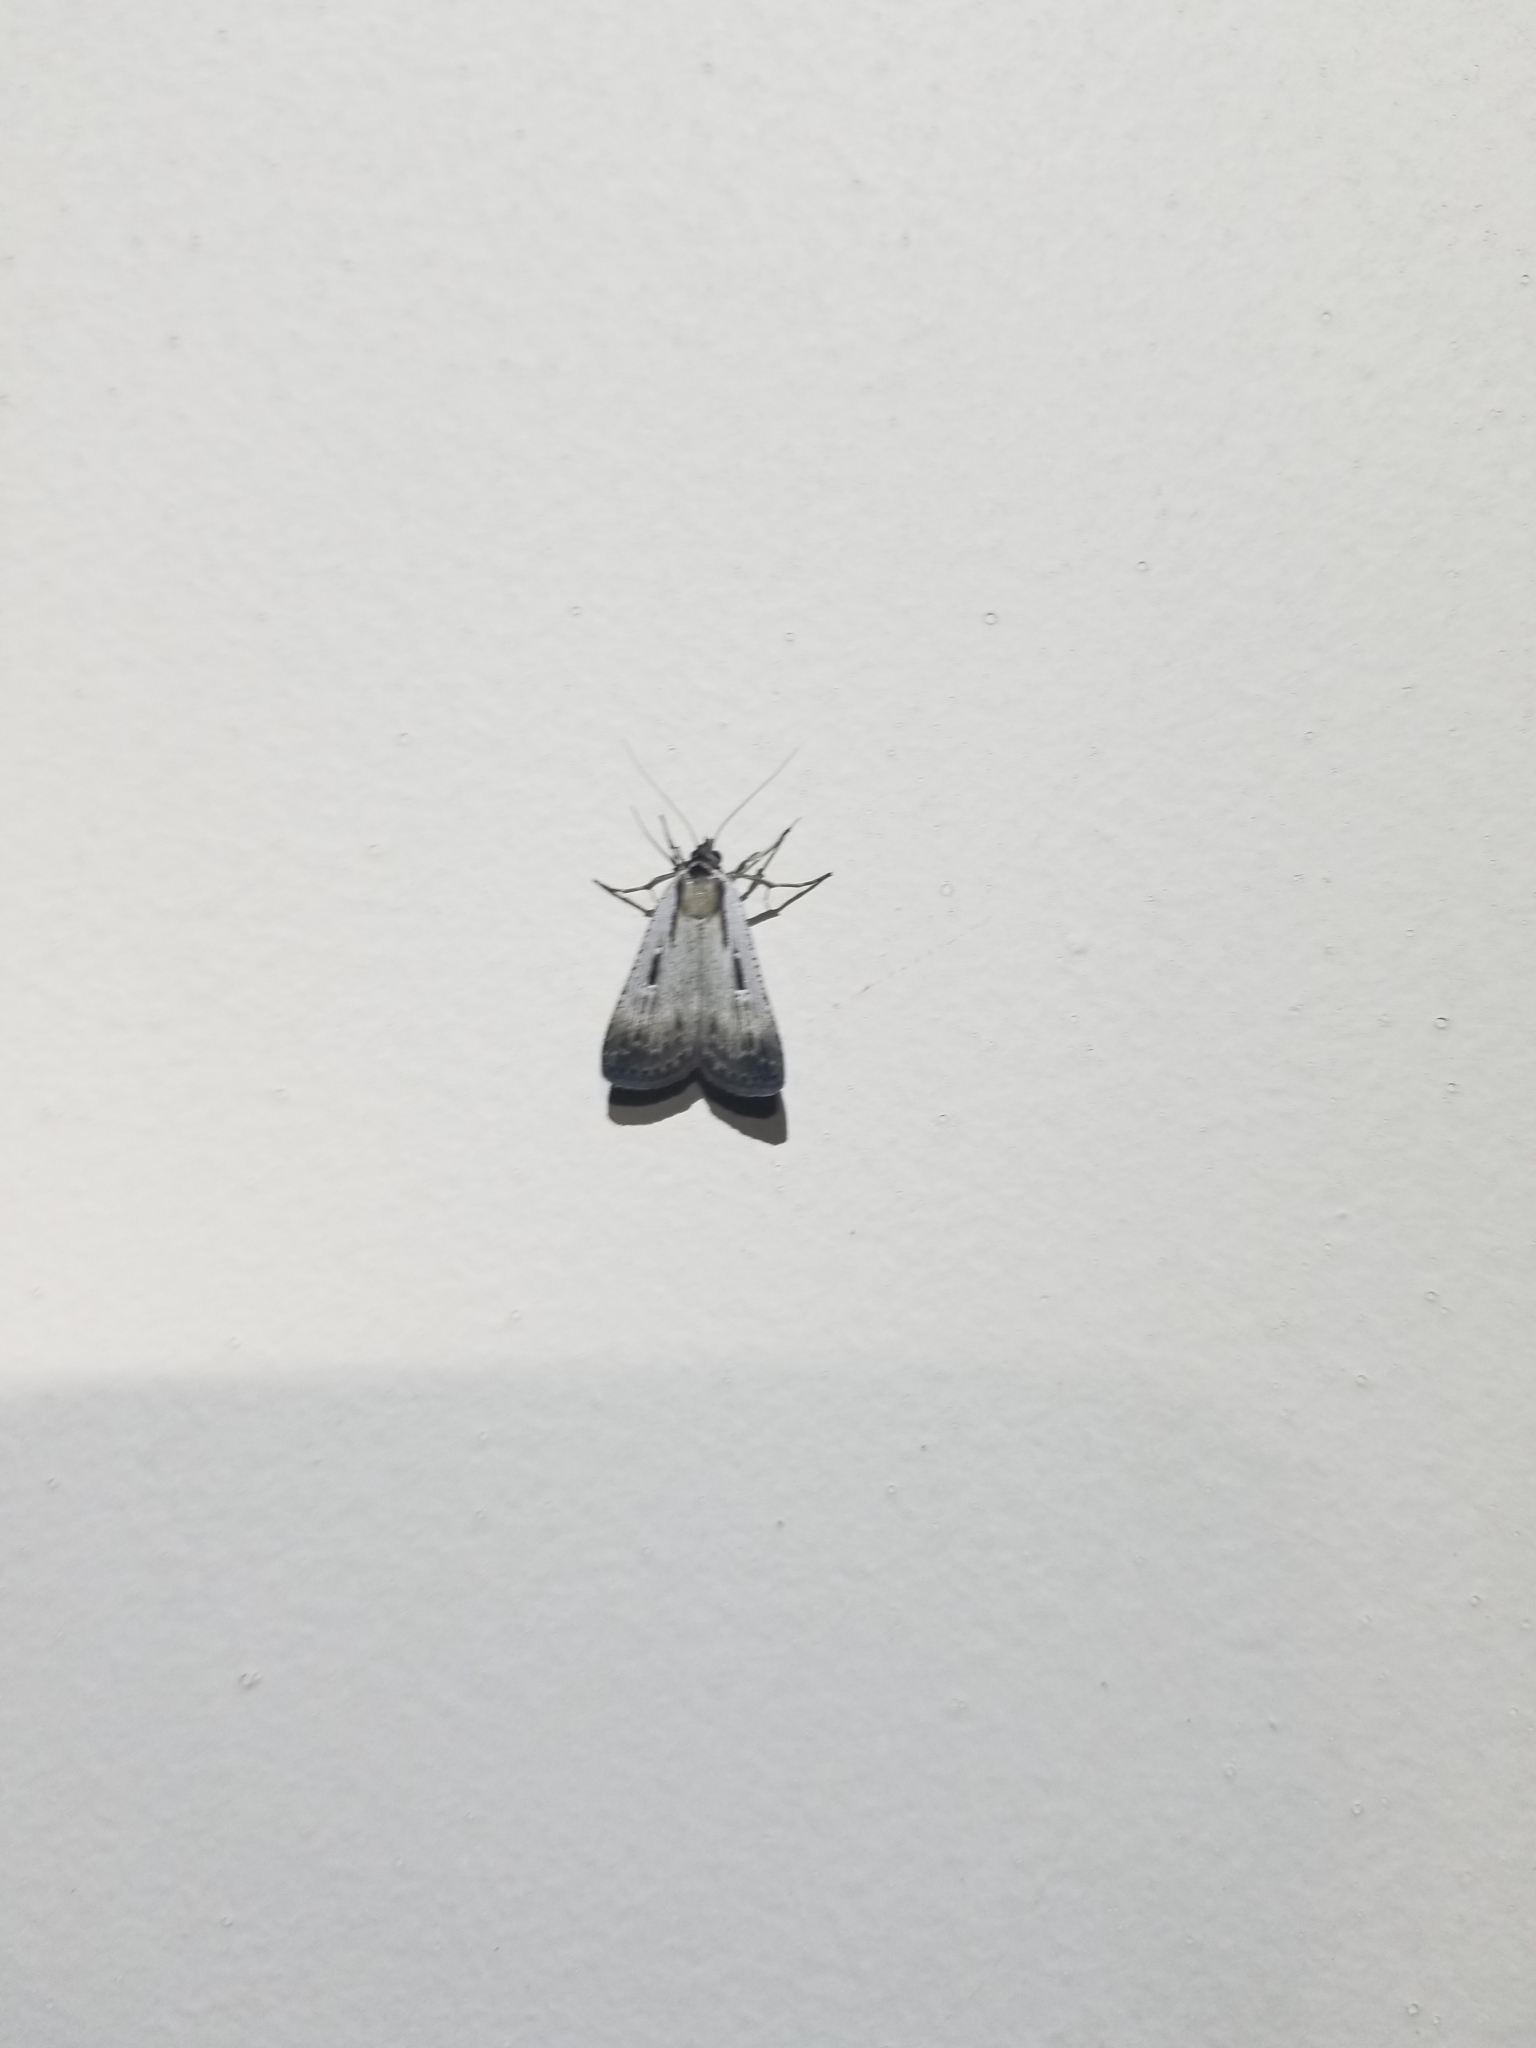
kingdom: Animalia
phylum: Arthropoda
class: Insecta
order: Lepidoptera
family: Noctuidae
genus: Tathorhynchus
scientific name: Tathorhynchus exsiccata
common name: Levant blackneck moth
